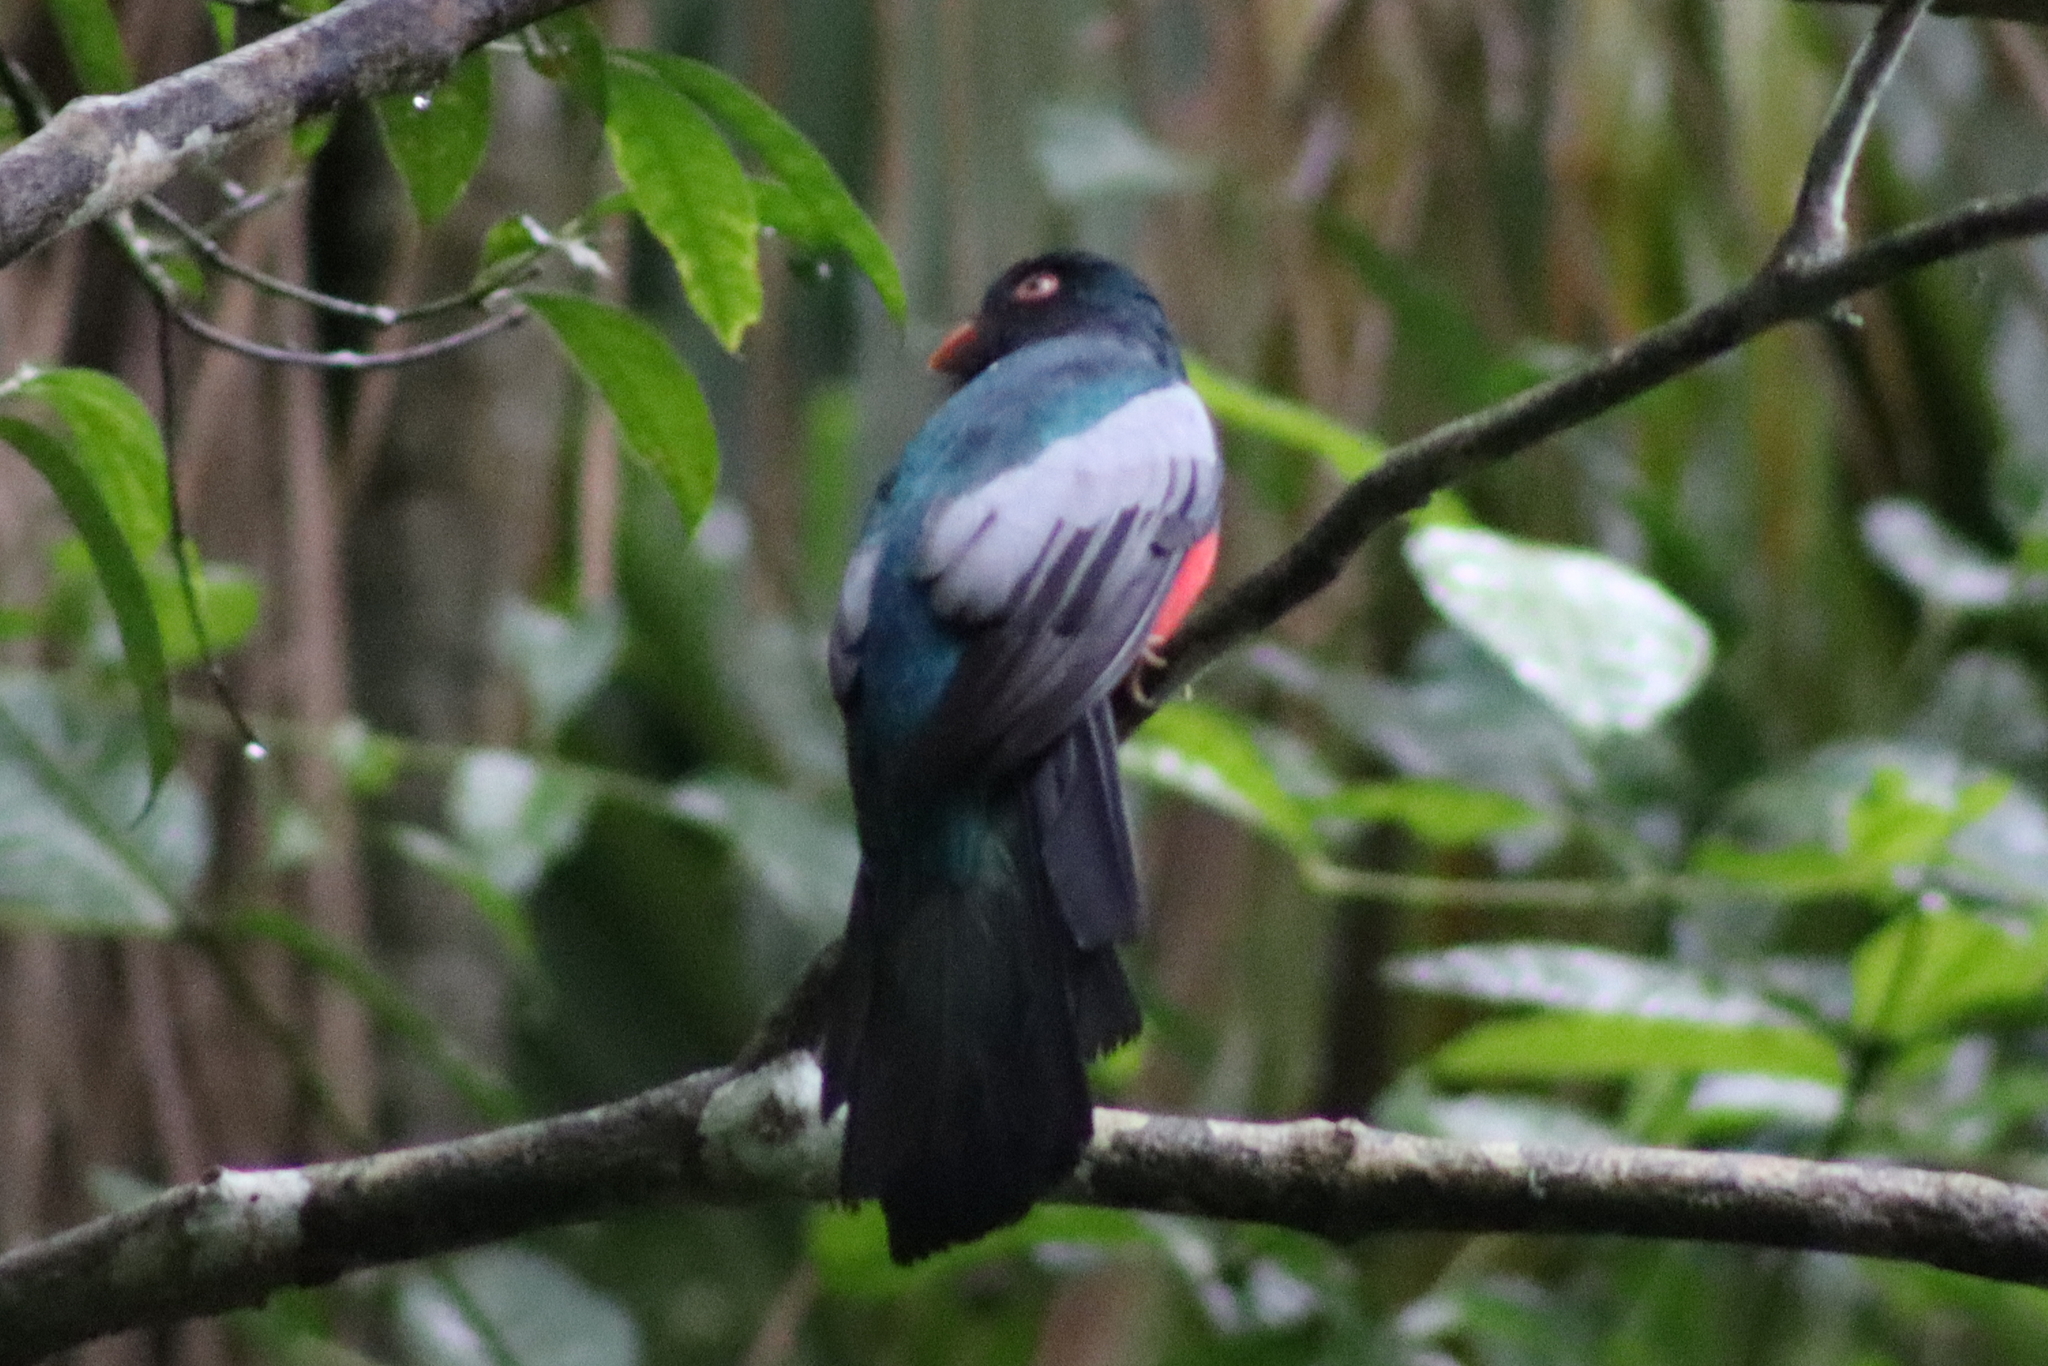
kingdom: Animalia
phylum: Chordata
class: Aves
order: Trogoniformes
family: Trogonidae
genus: Trogon
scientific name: Trogon massena
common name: Slaty-tailed trogon
